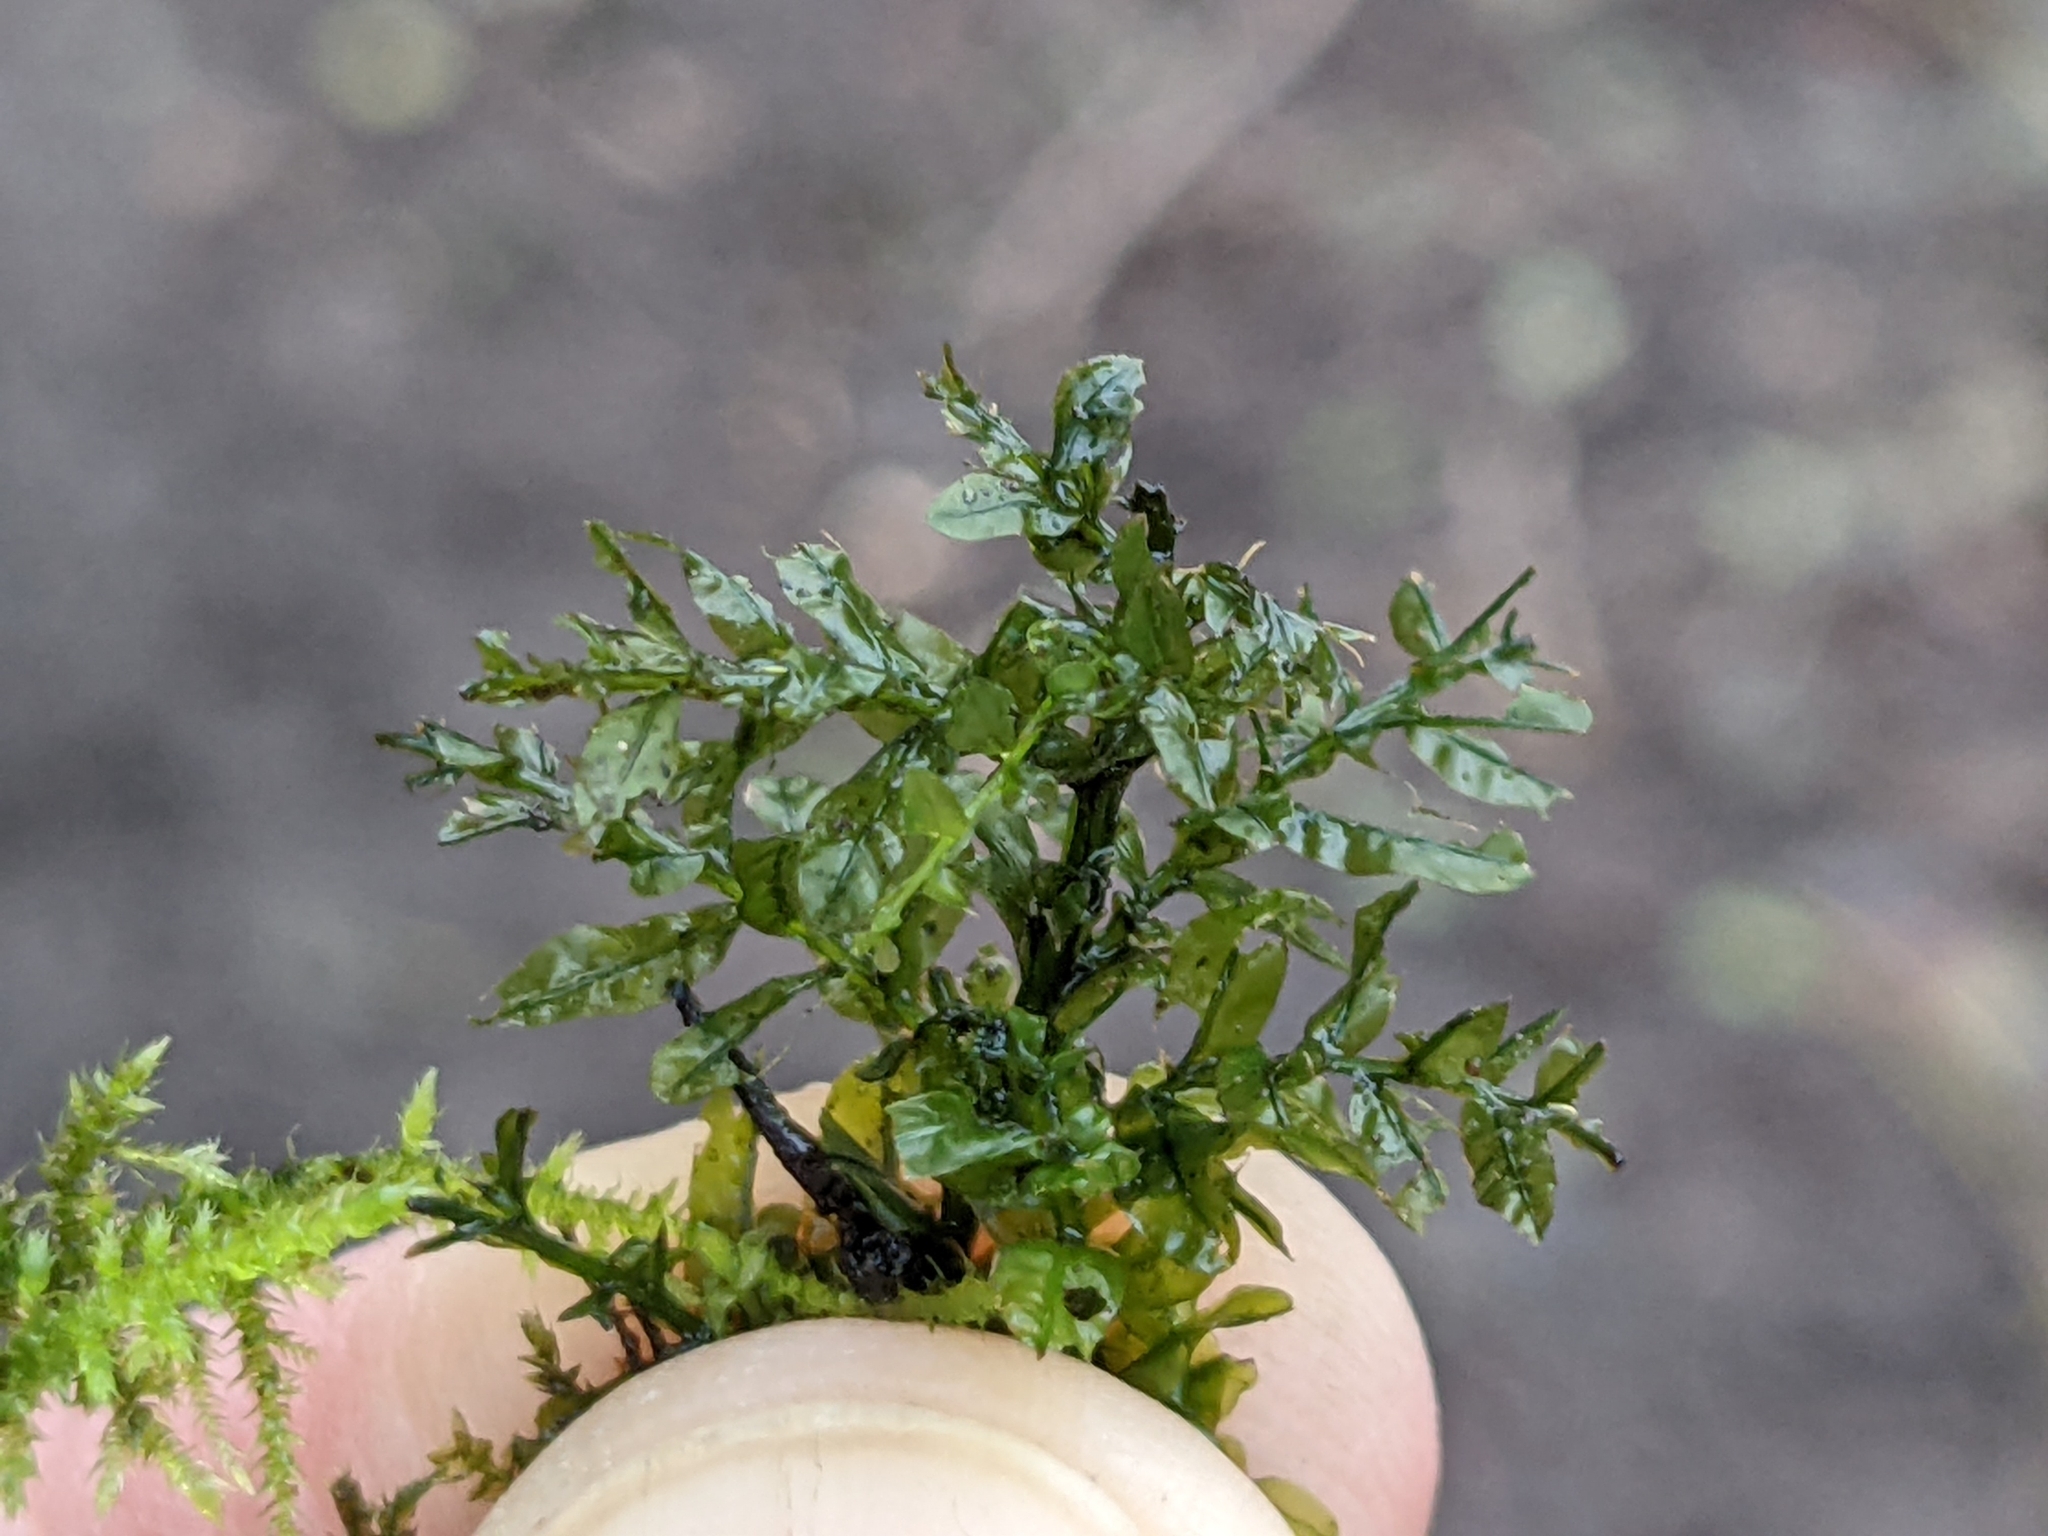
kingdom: Plantae
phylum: Bryophyta
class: Bryopsida
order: Bryales
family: Mniaceae
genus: Plagiomnium
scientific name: Plagiomnium undulatum
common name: Hart's-tongue thyme-moss
